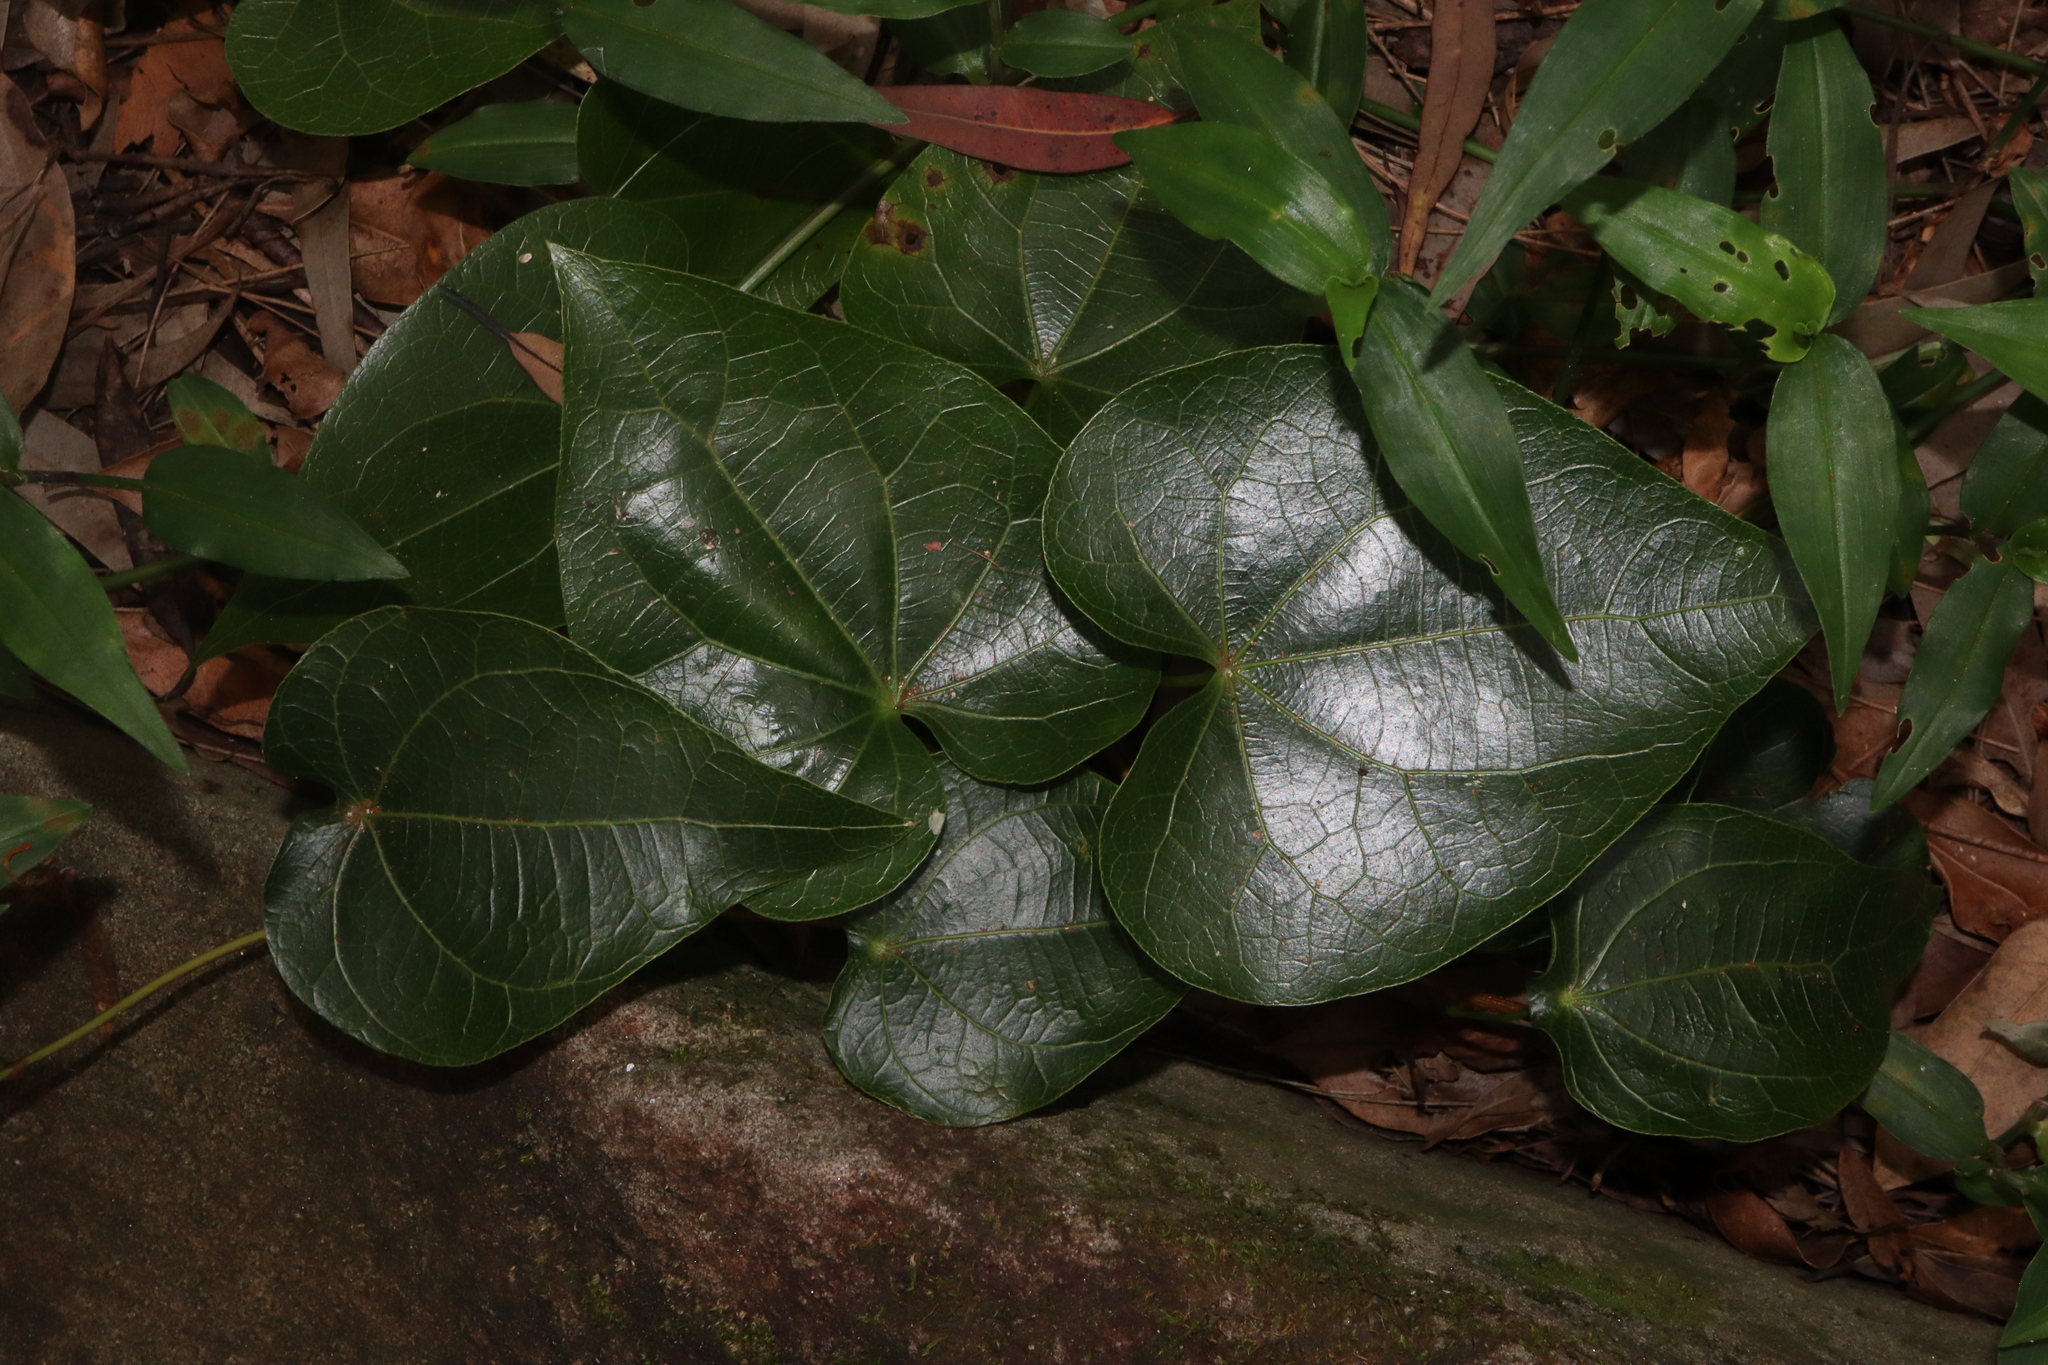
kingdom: Plantae
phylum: Tracheophyta
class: Magnoliopsida
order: Ranunculales
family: Menispermaceae
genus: Sarcopetalum
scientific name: Sarcopetalum harveyanum
